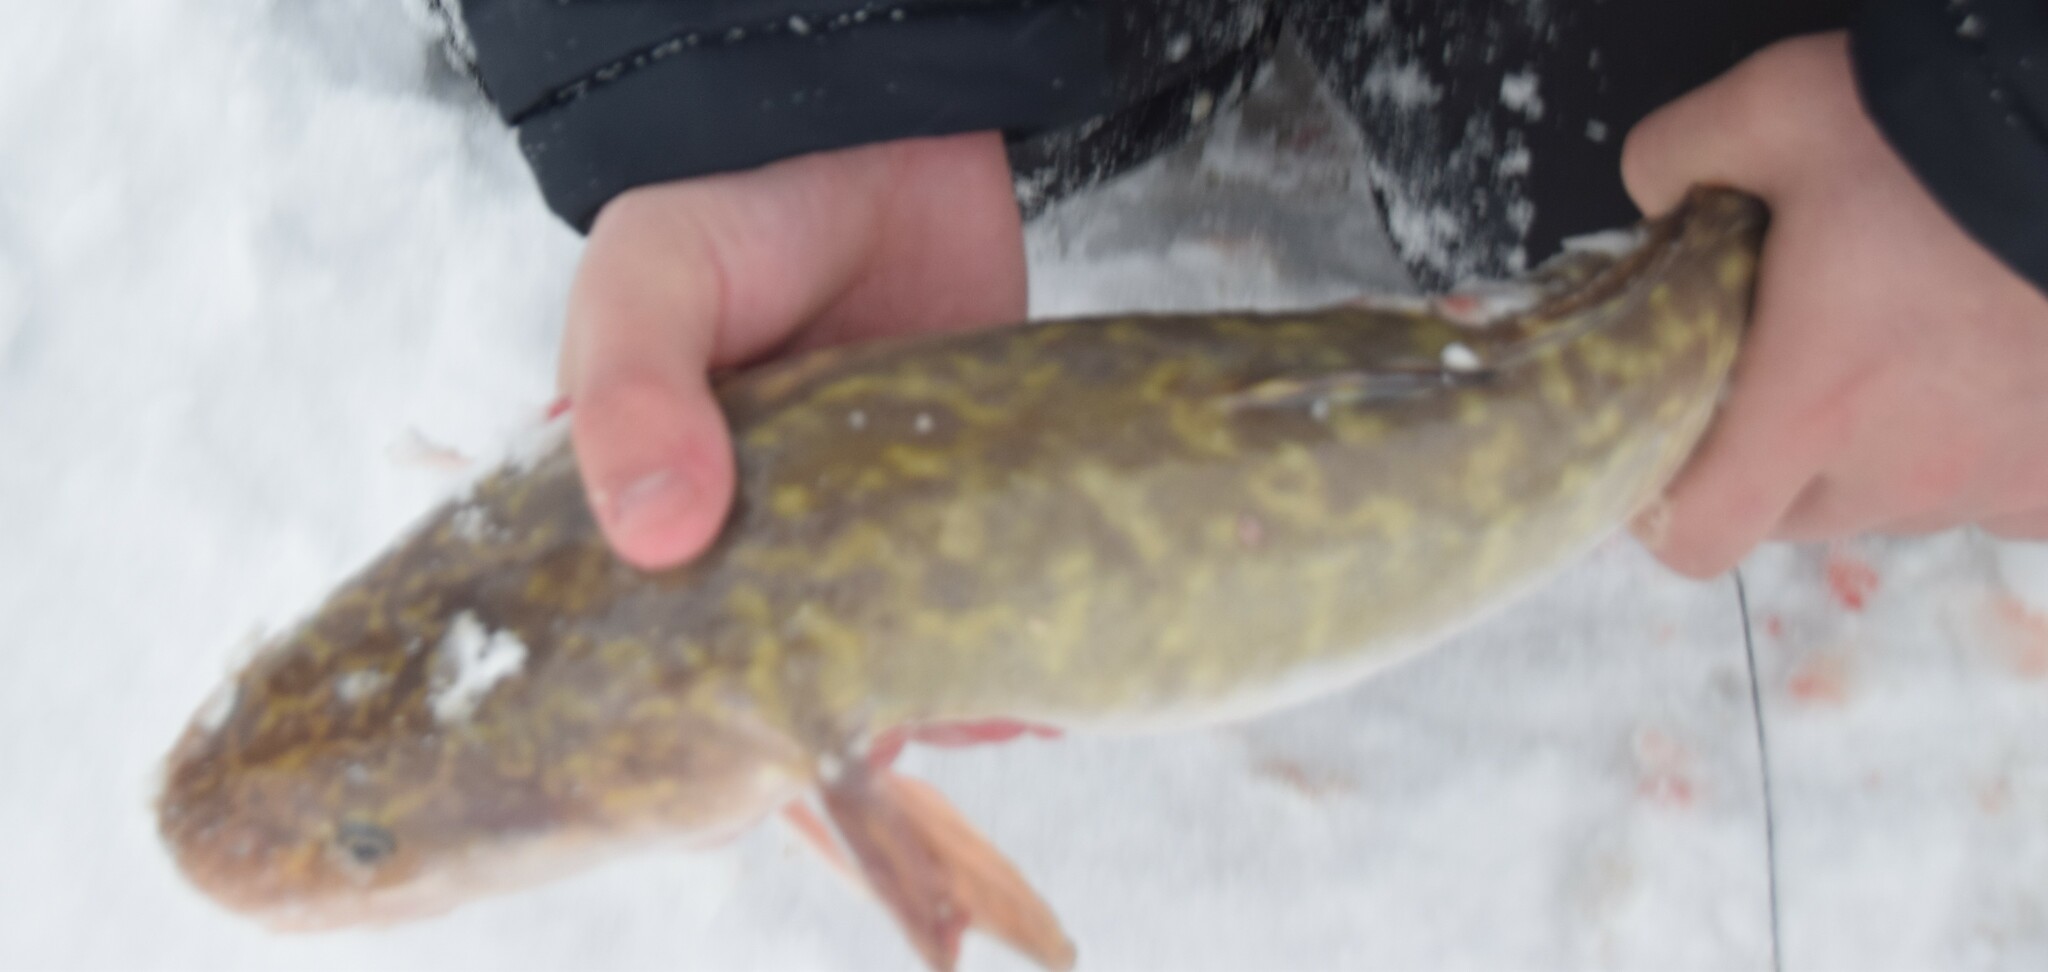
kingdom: Animalia
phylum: Chordata
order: Gadiformes
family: Lotidae
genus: Lota
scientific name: Lota lota
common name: Burbot
